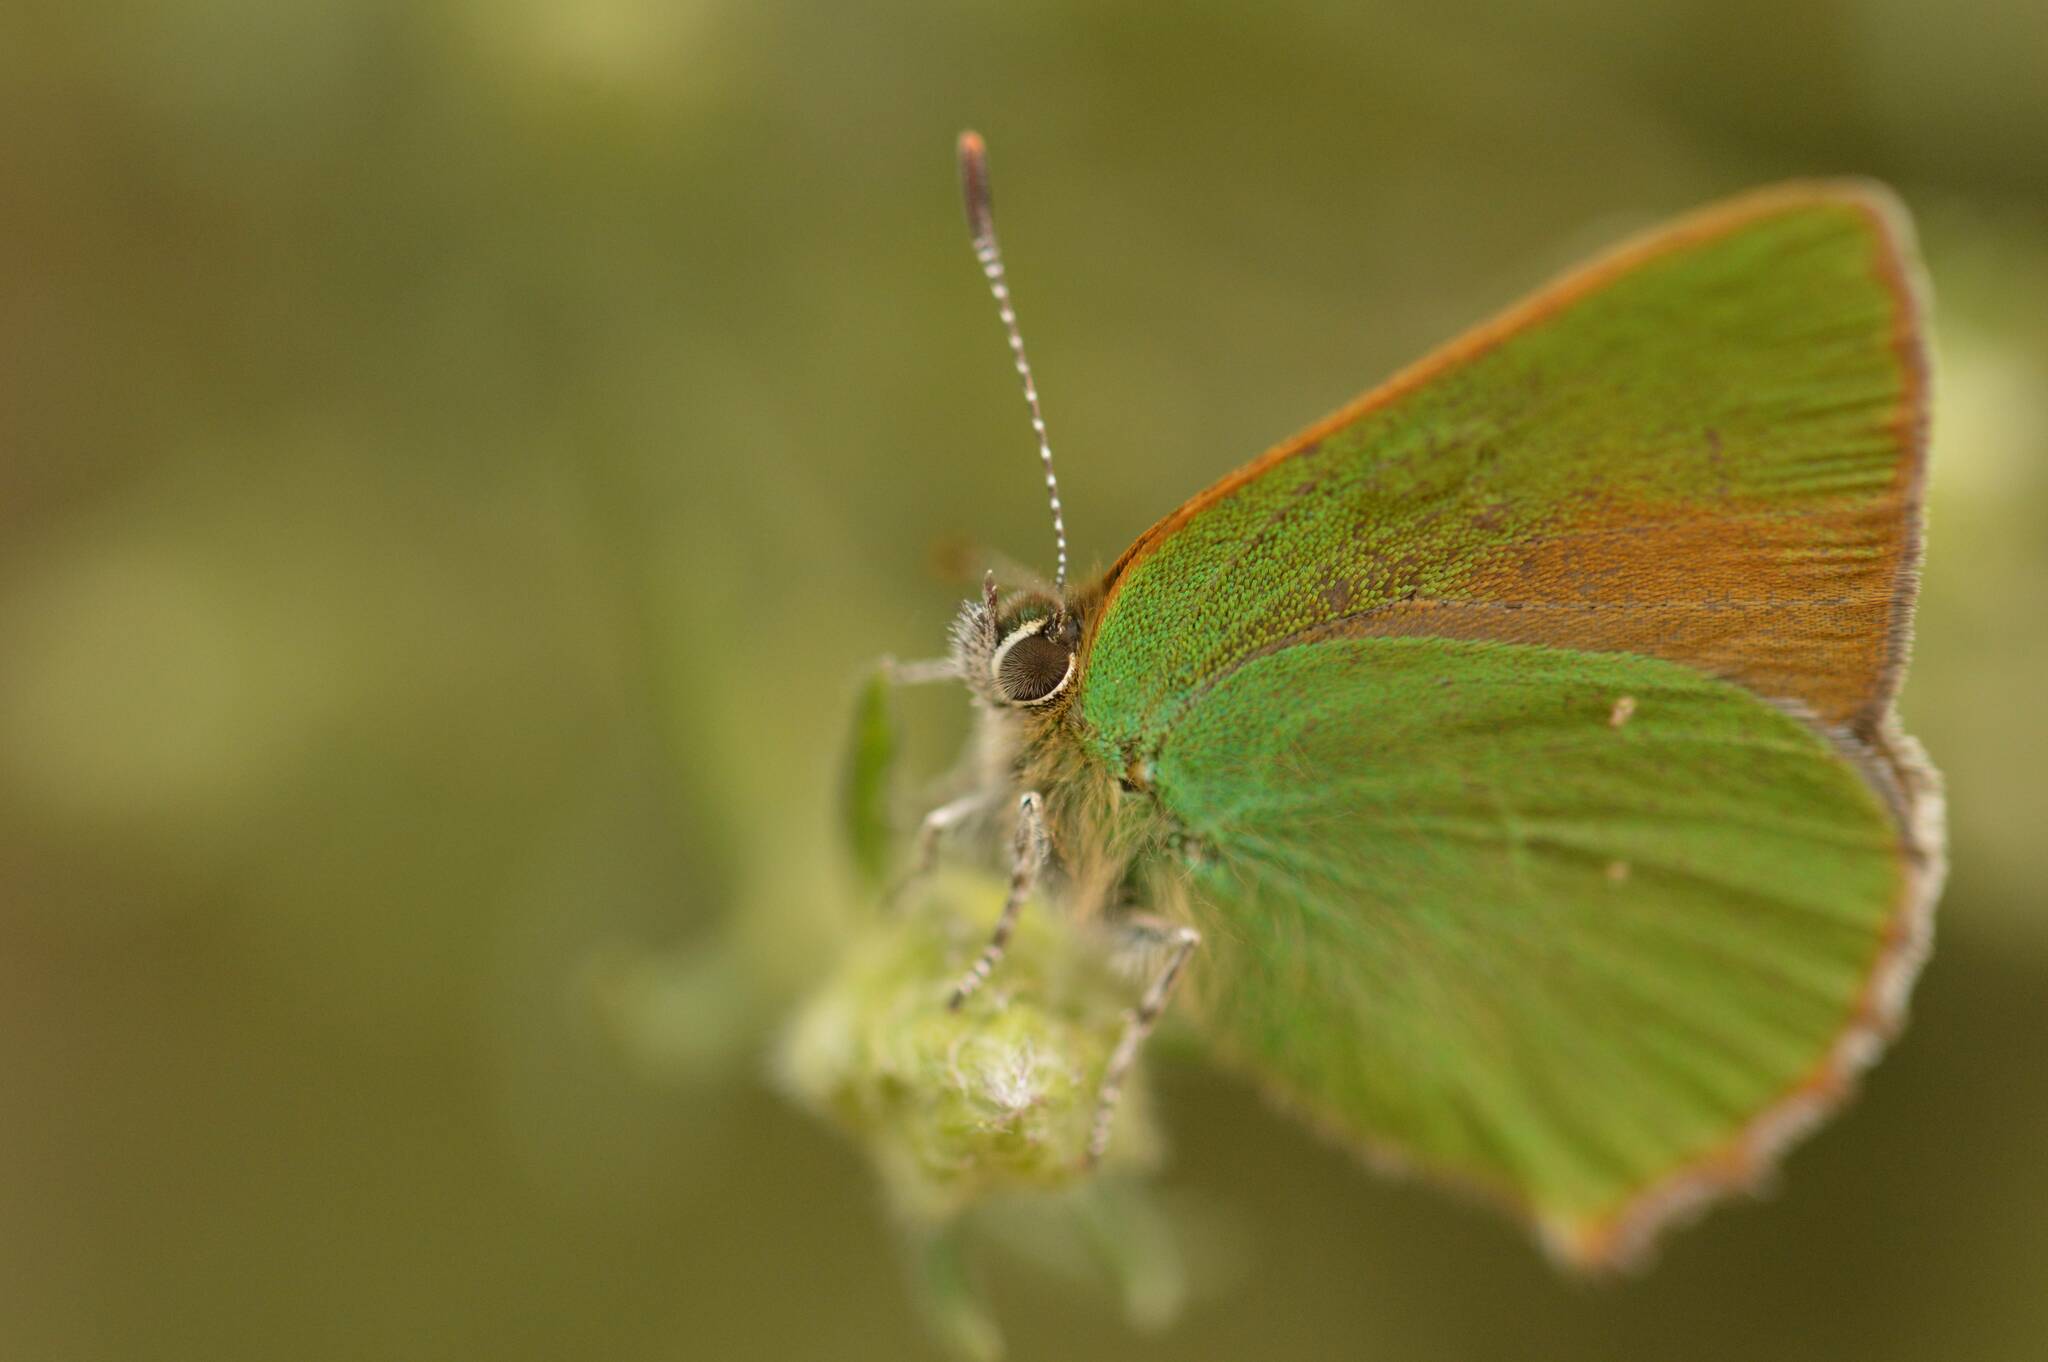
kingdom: Animalia
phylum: Arthropoda
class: Insecta
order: Lepidoptera
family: Lycaenidae
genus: Callophrys
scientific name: Callophrys rubi
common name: Green hairstreak
